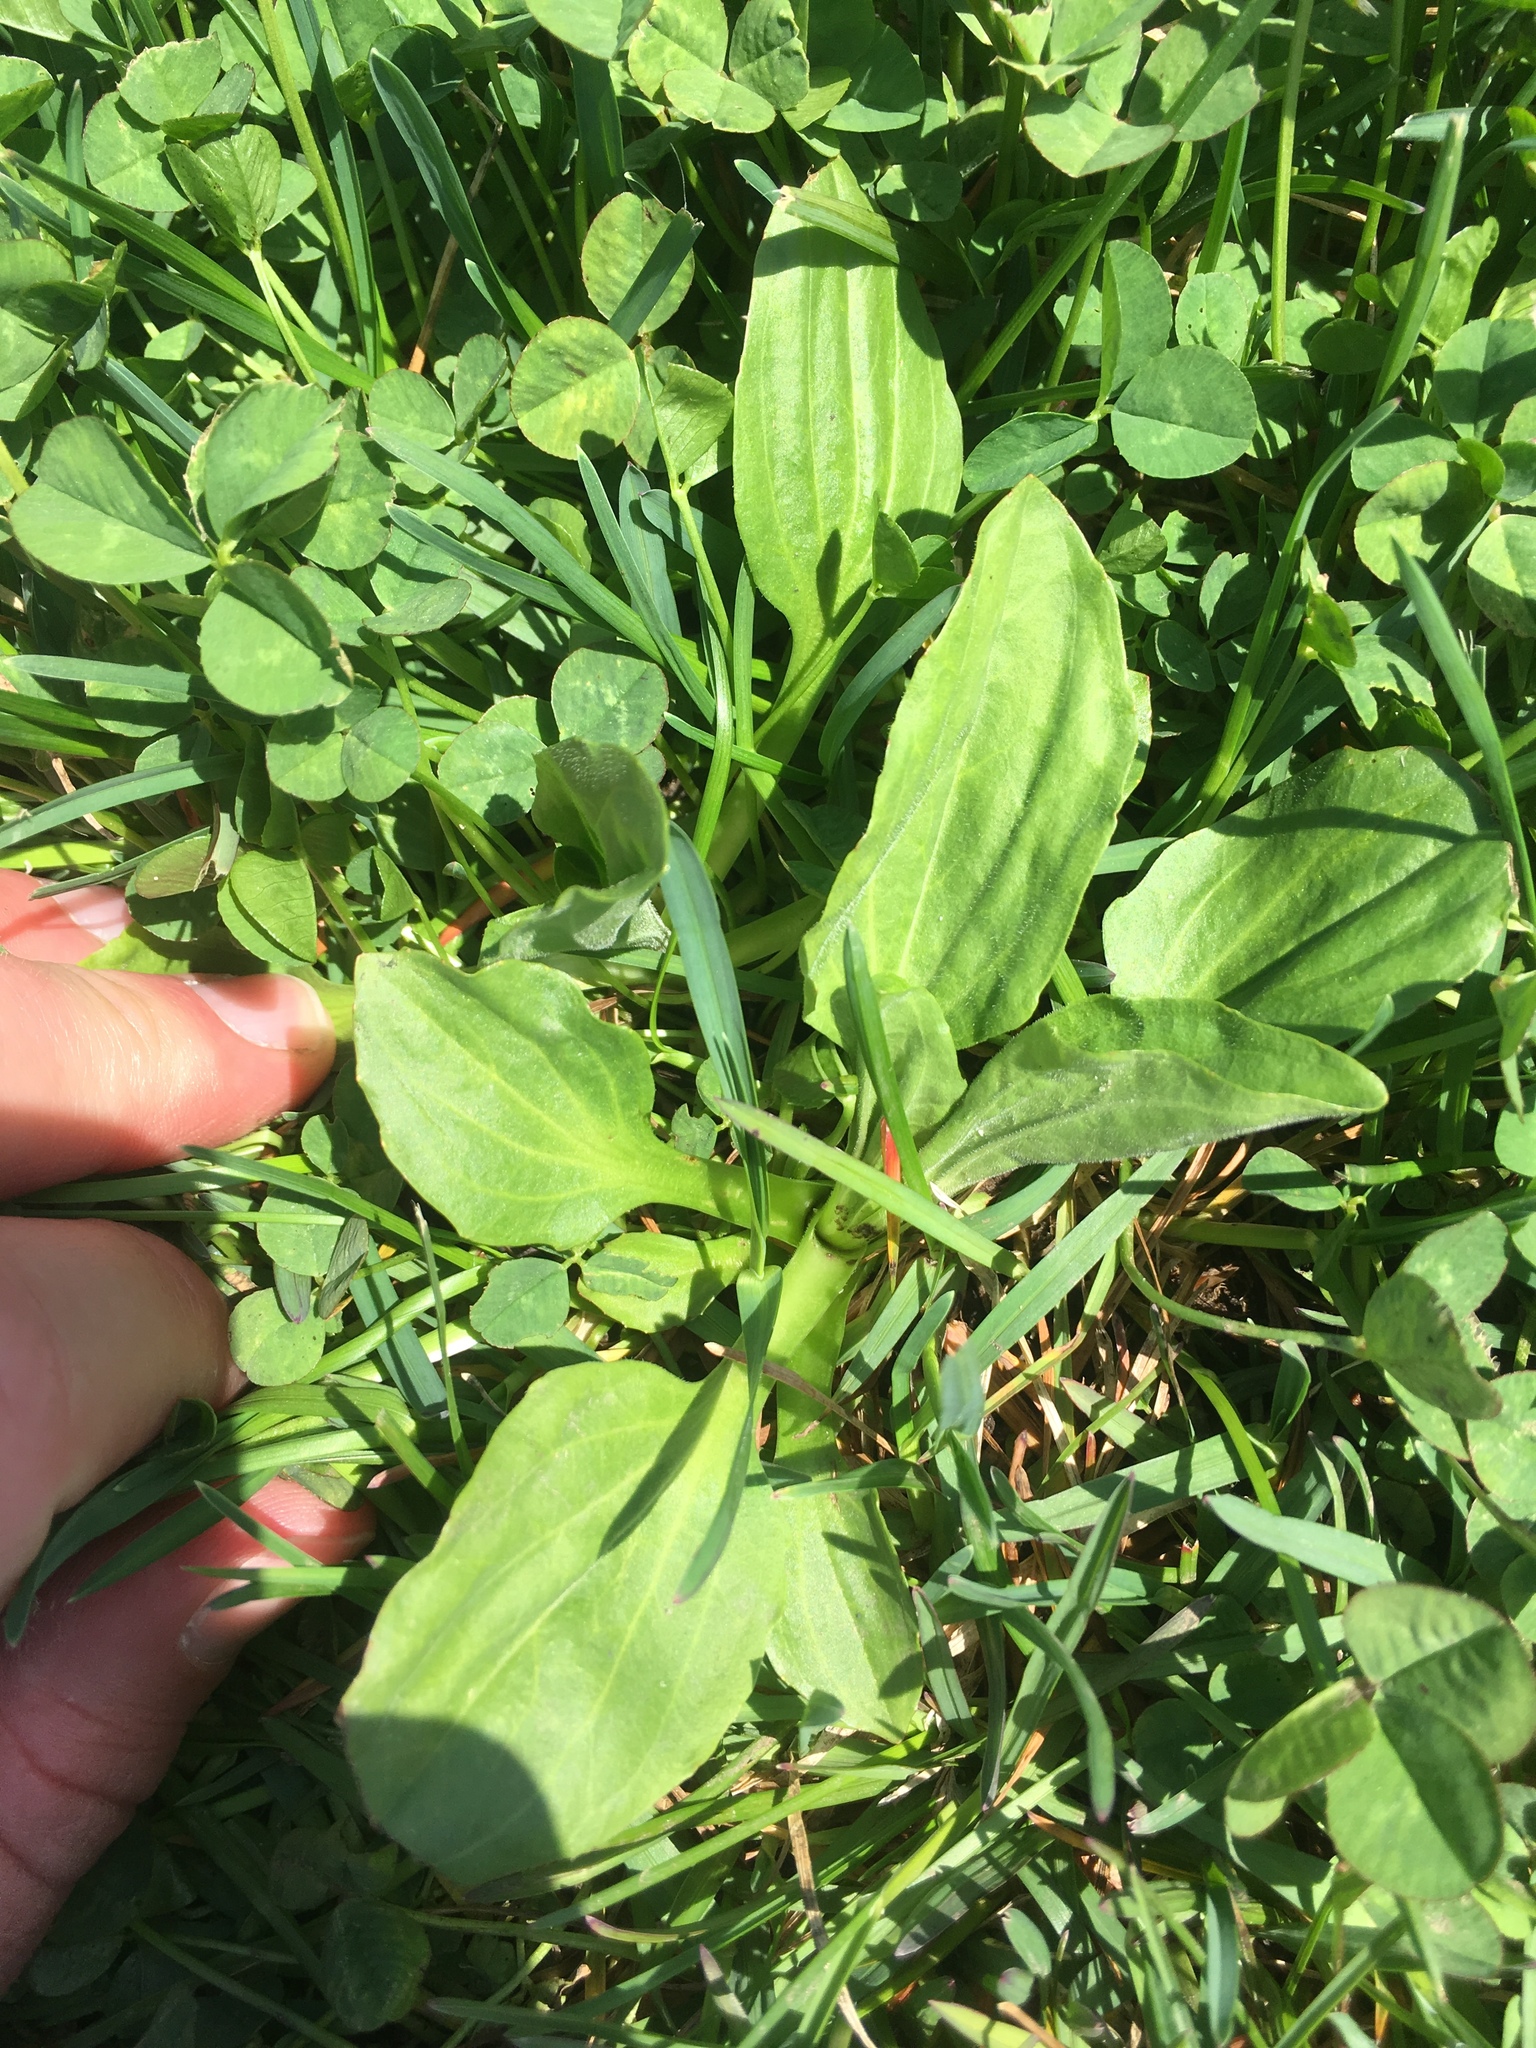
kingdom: Plantae
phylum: Tracheophyta
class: Magnoliopsida
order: Lamiales
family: Plantaginaceae
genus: Plantago
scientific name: Plantago major
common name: Common plantain
